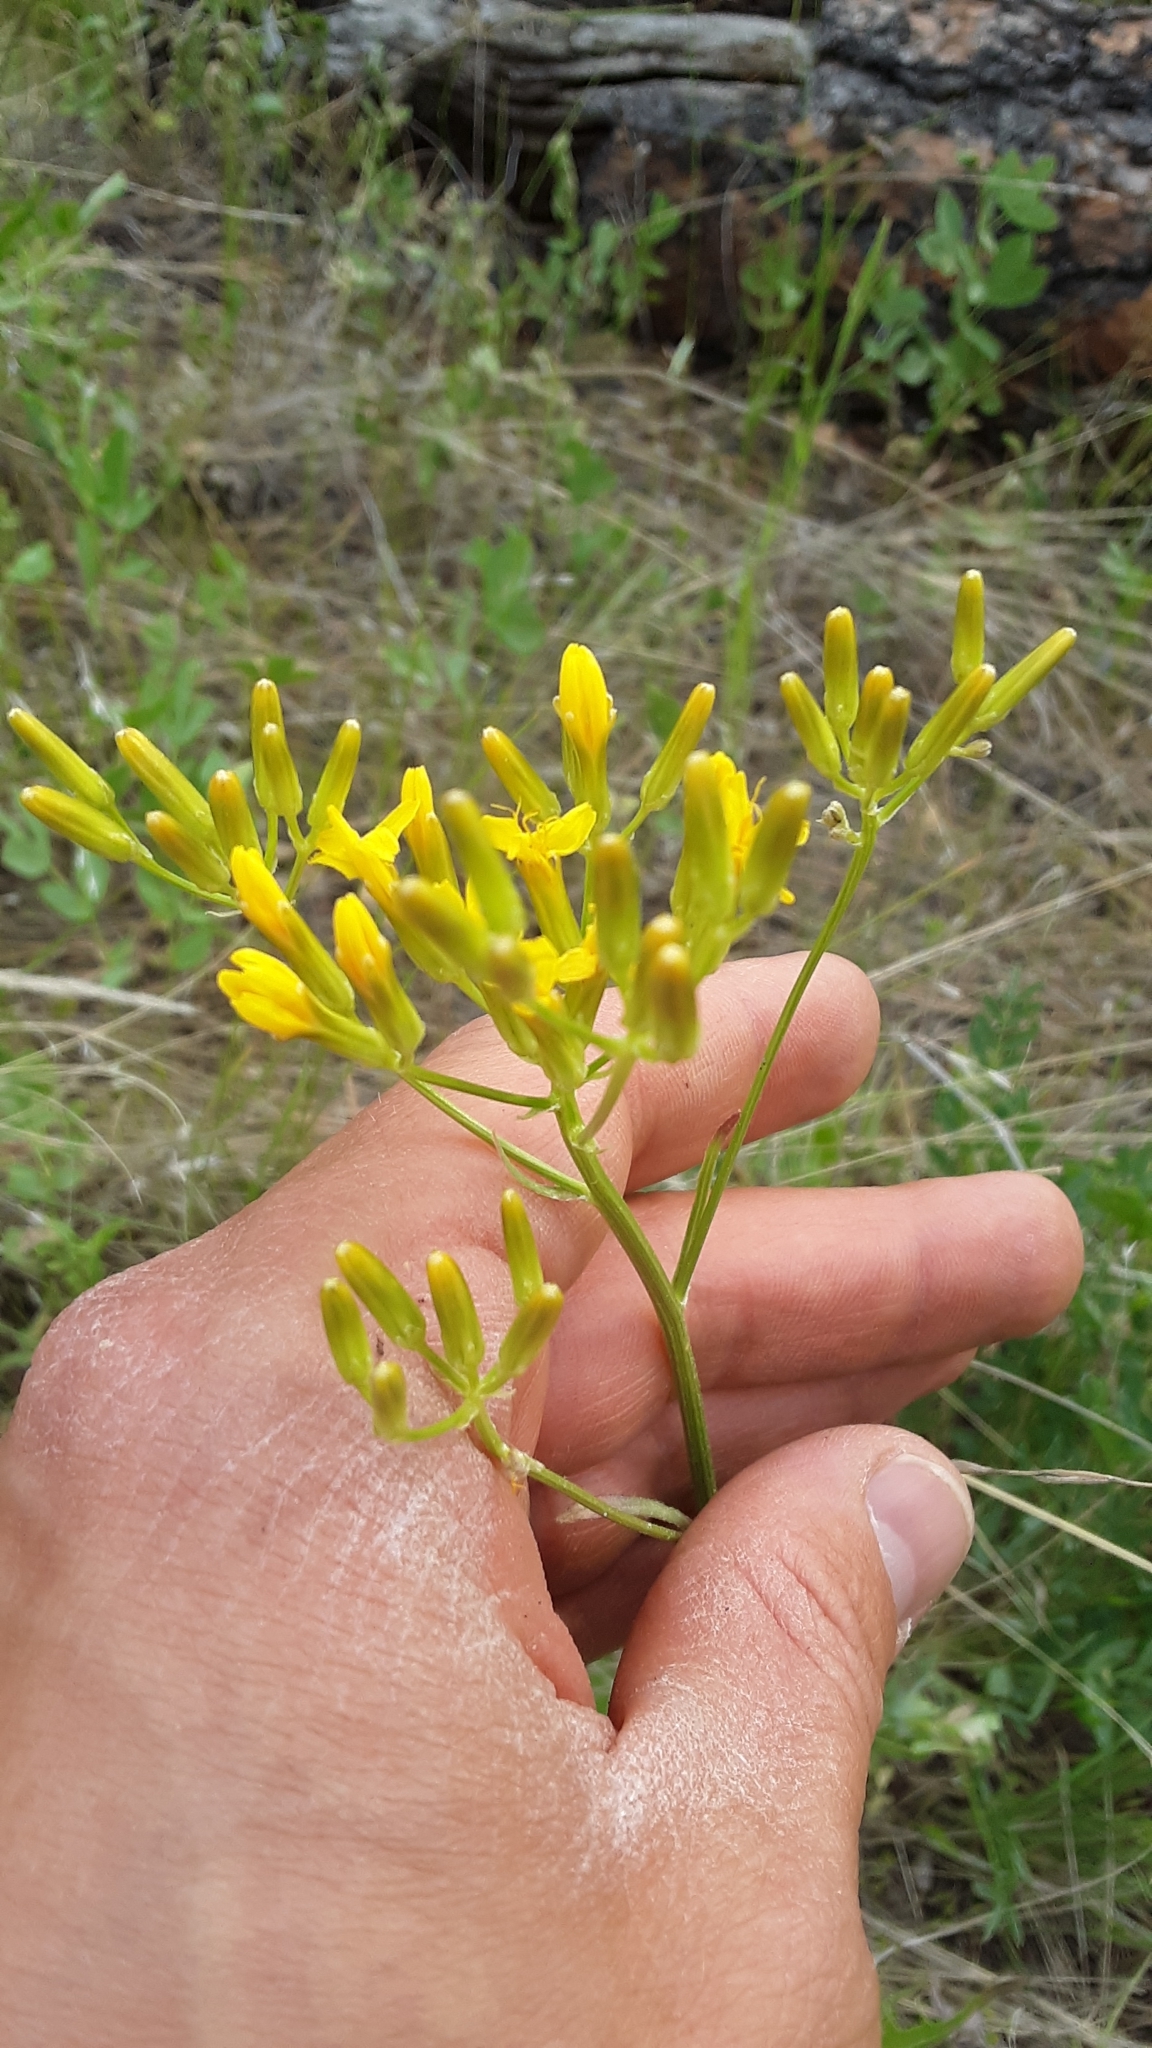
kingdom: Plantae
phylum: Tracheophyta
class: Magnoliopsida
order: Asterales
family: Asteraceae
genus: Crepis
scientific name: Crepis acuminata
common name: Longleaf hawk's-beard
